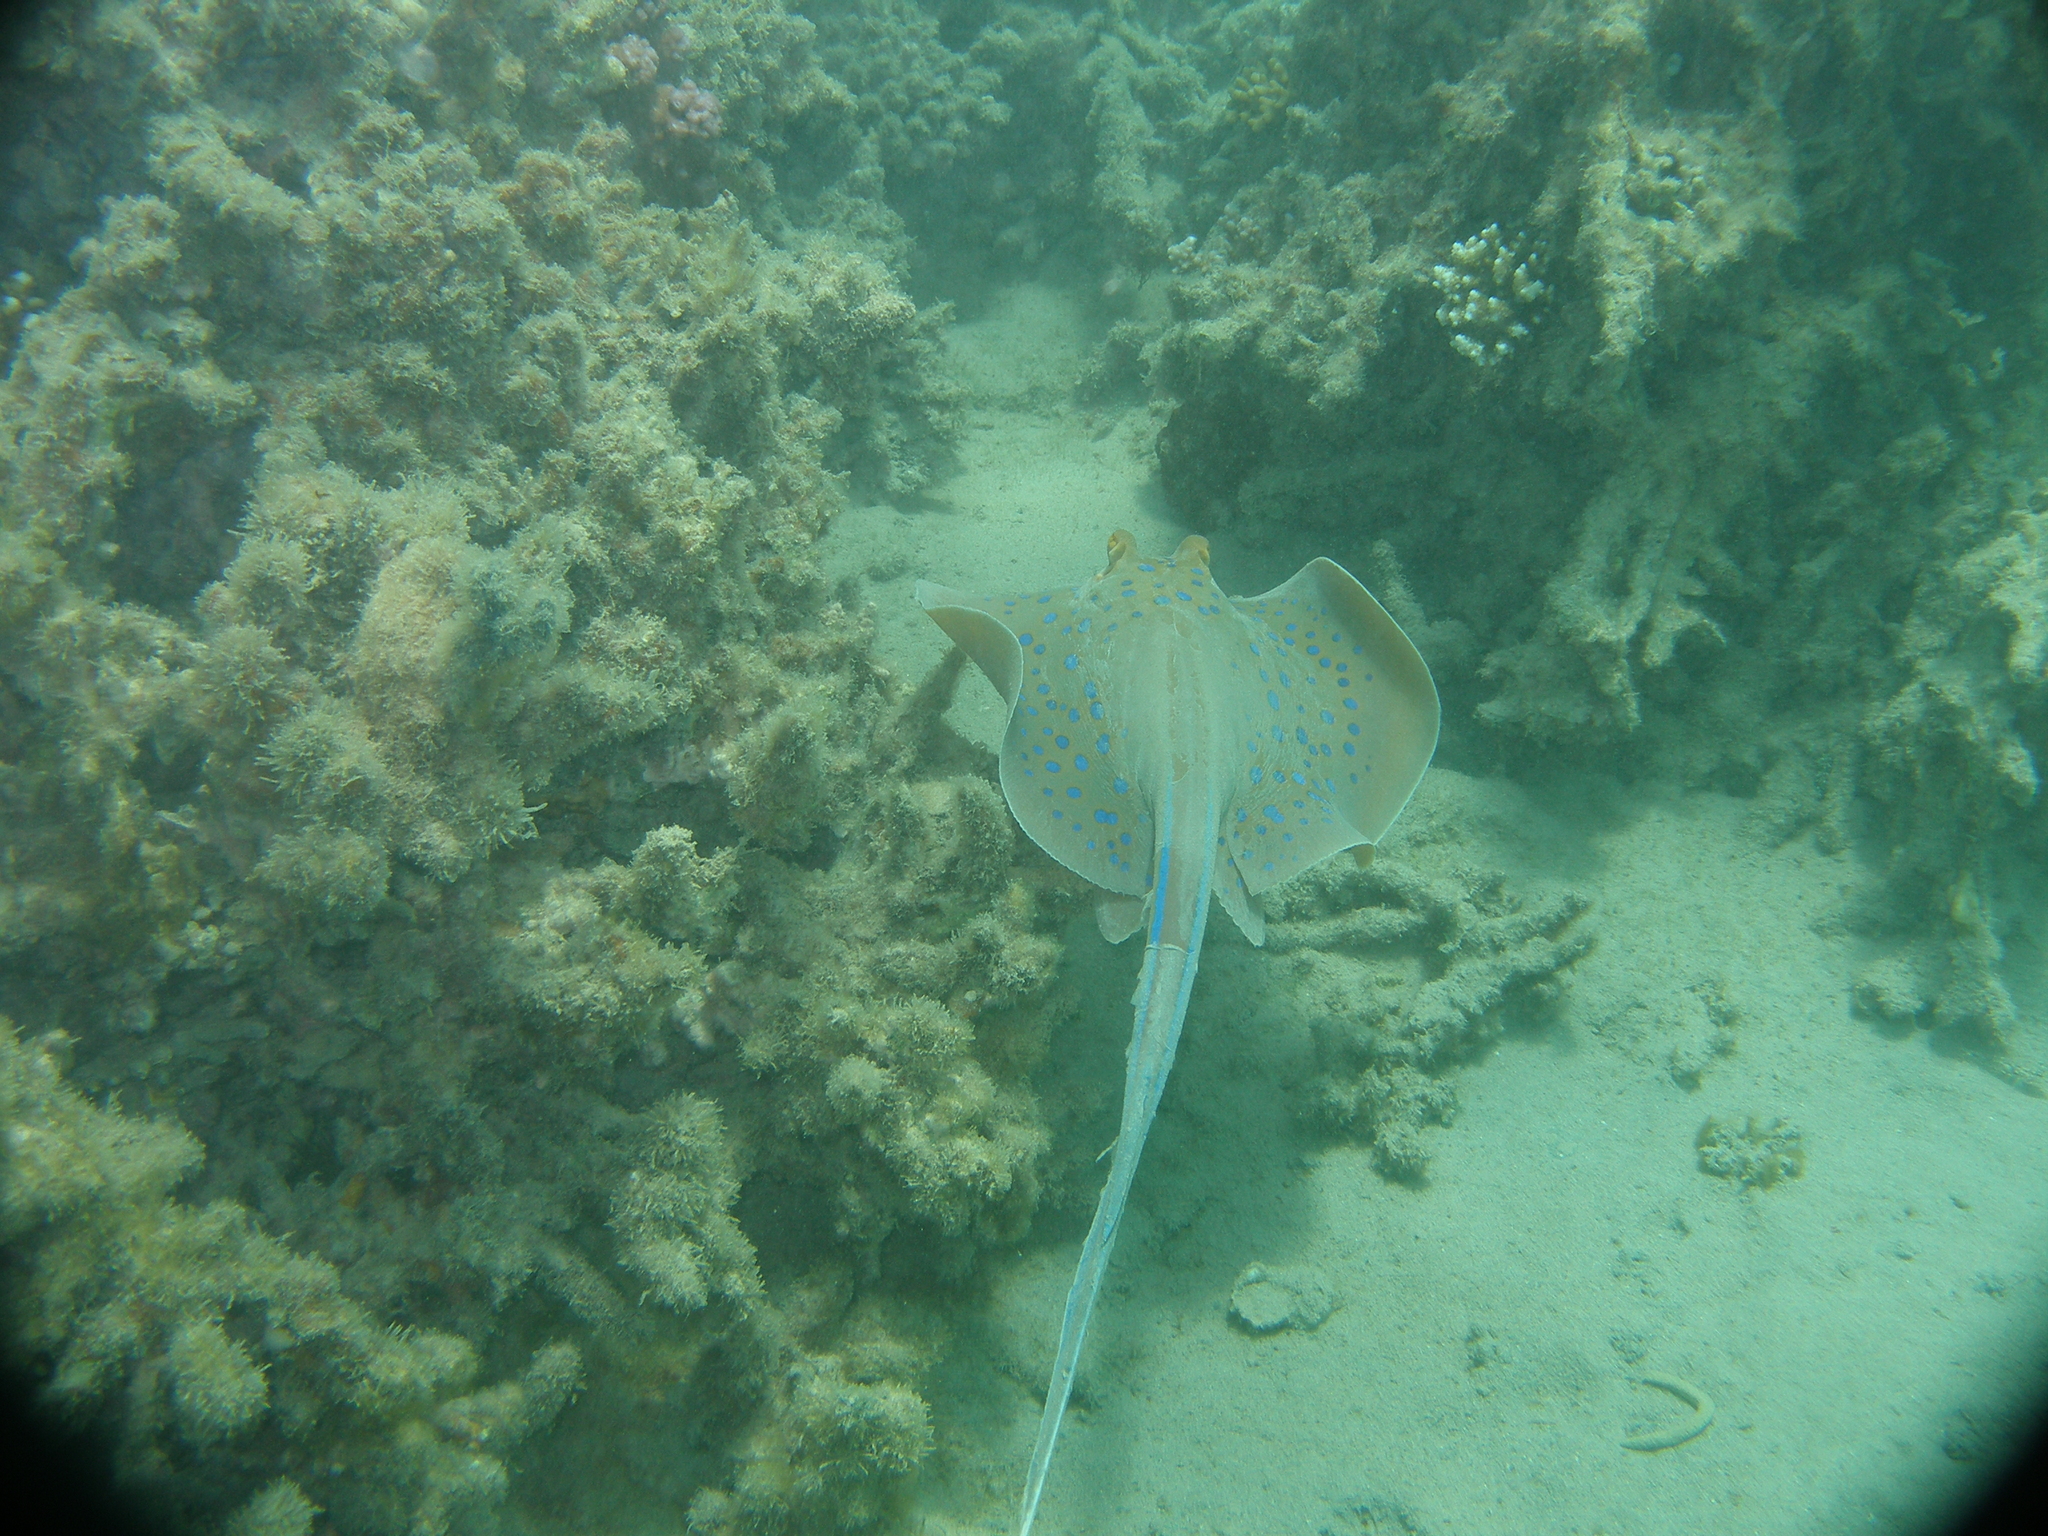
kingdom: Animalia
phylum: Chordata
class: Elasmobranchii
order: Myliobatiformes
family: Dasyatidae
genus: Taeniura
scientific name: Taeniura lymma
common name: Bluespotted ribbontail ray
